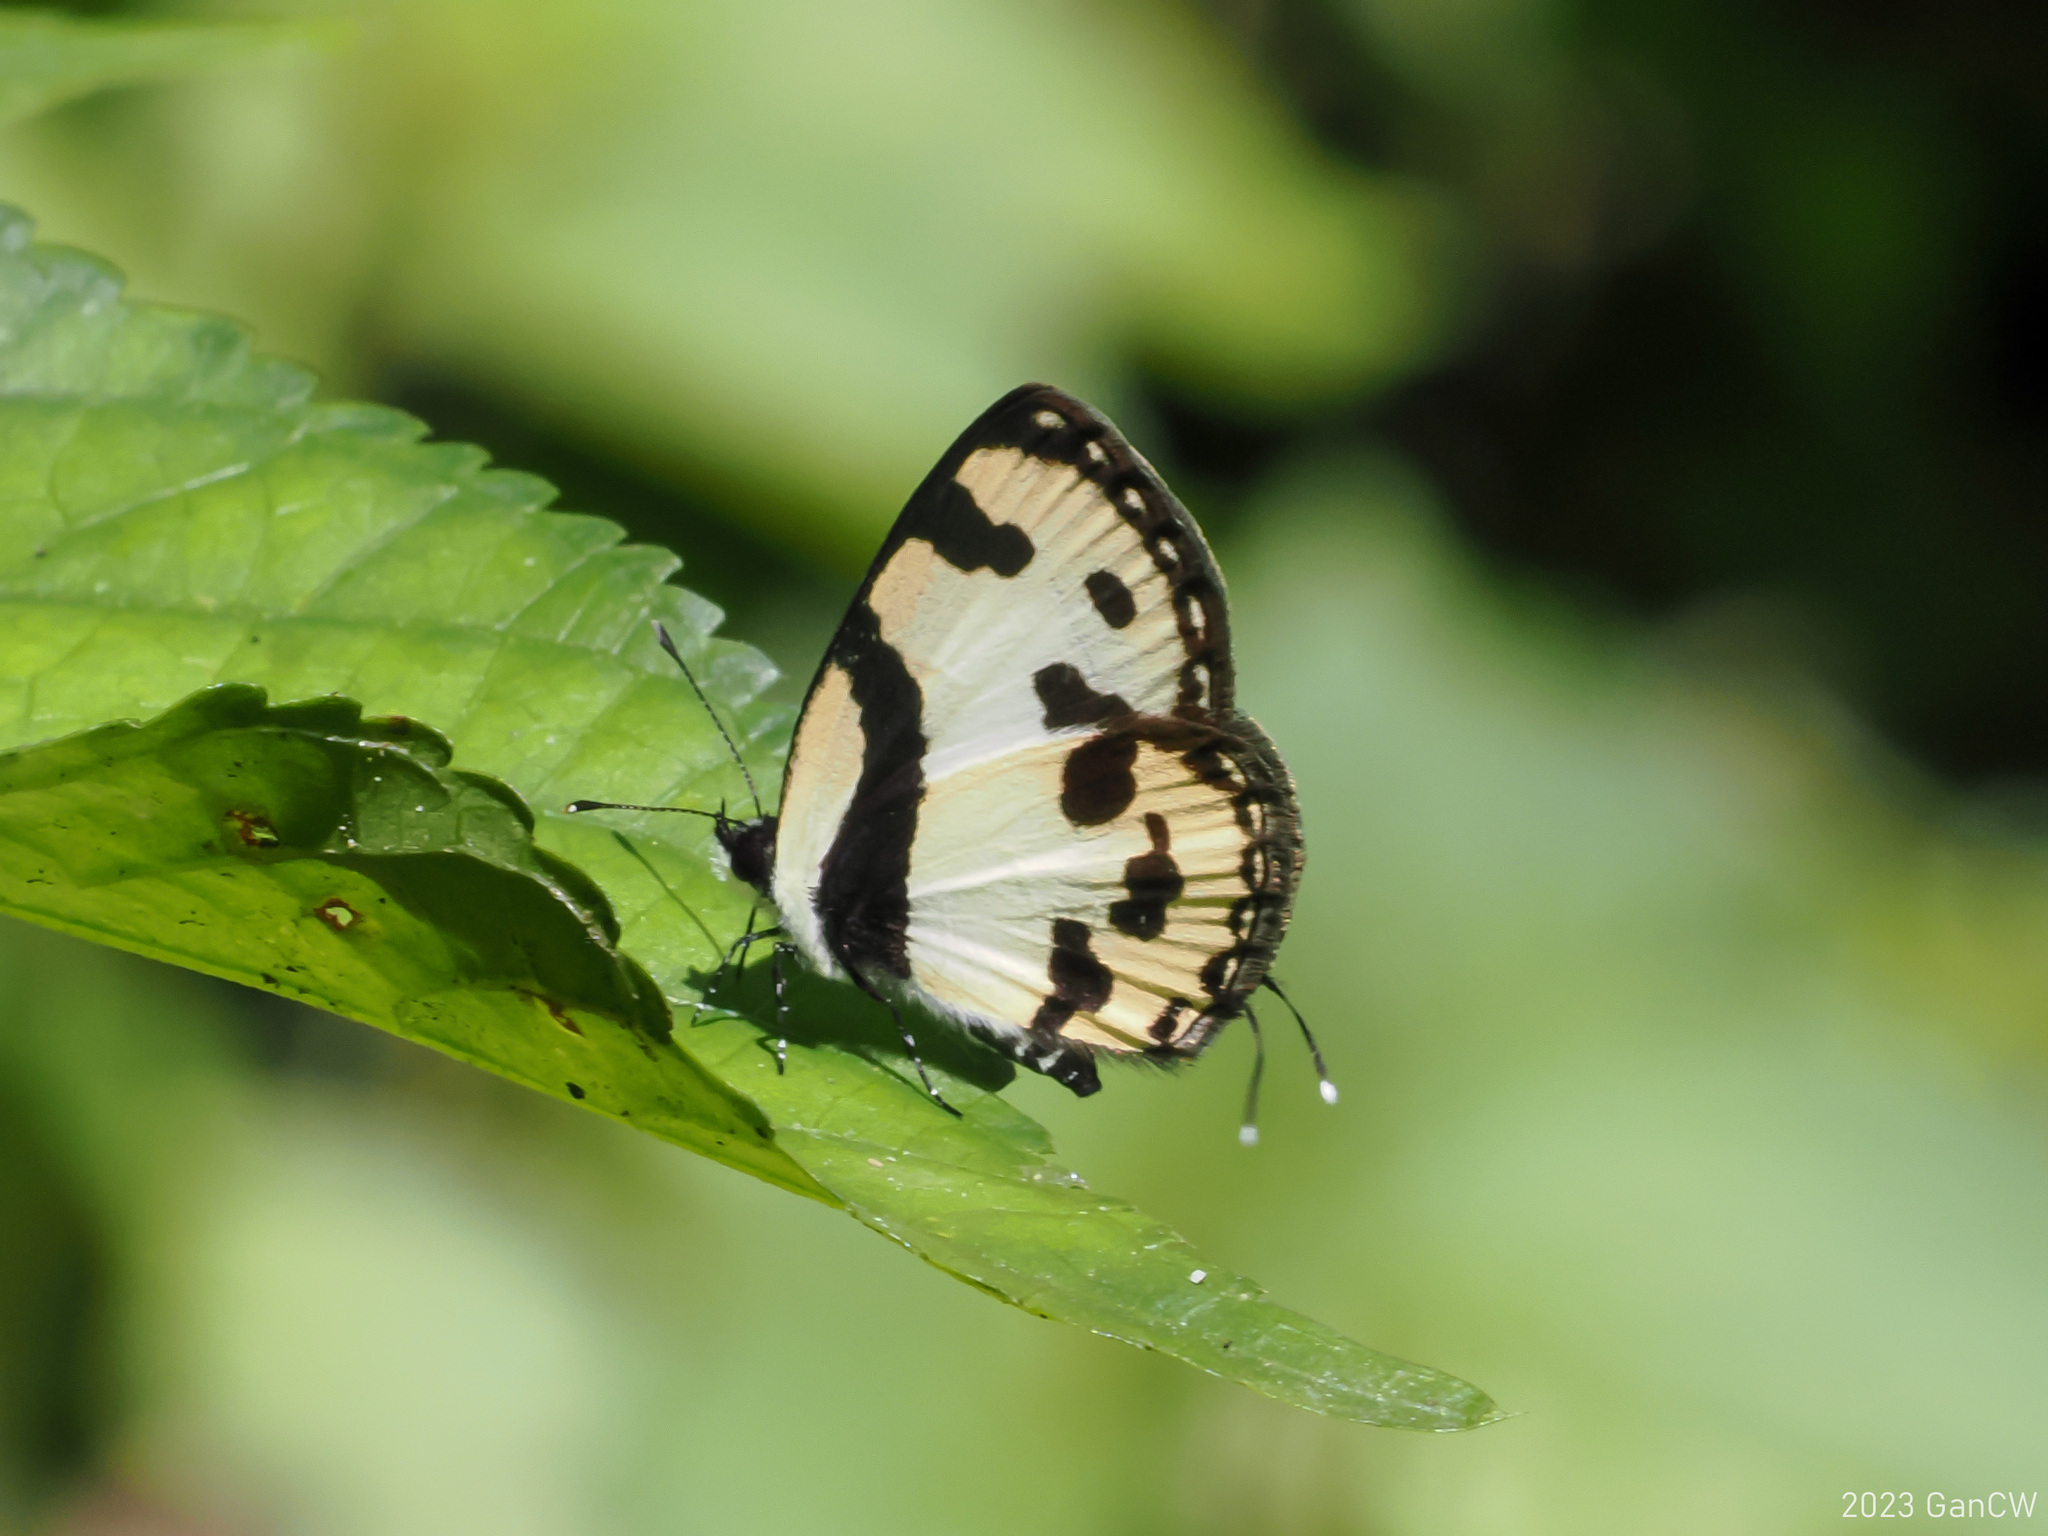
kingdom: Animalia
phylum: Arthropoda
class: Insecta
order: Lepidoptera
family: Lycaenidae
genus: Caleta
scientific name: Caleta
